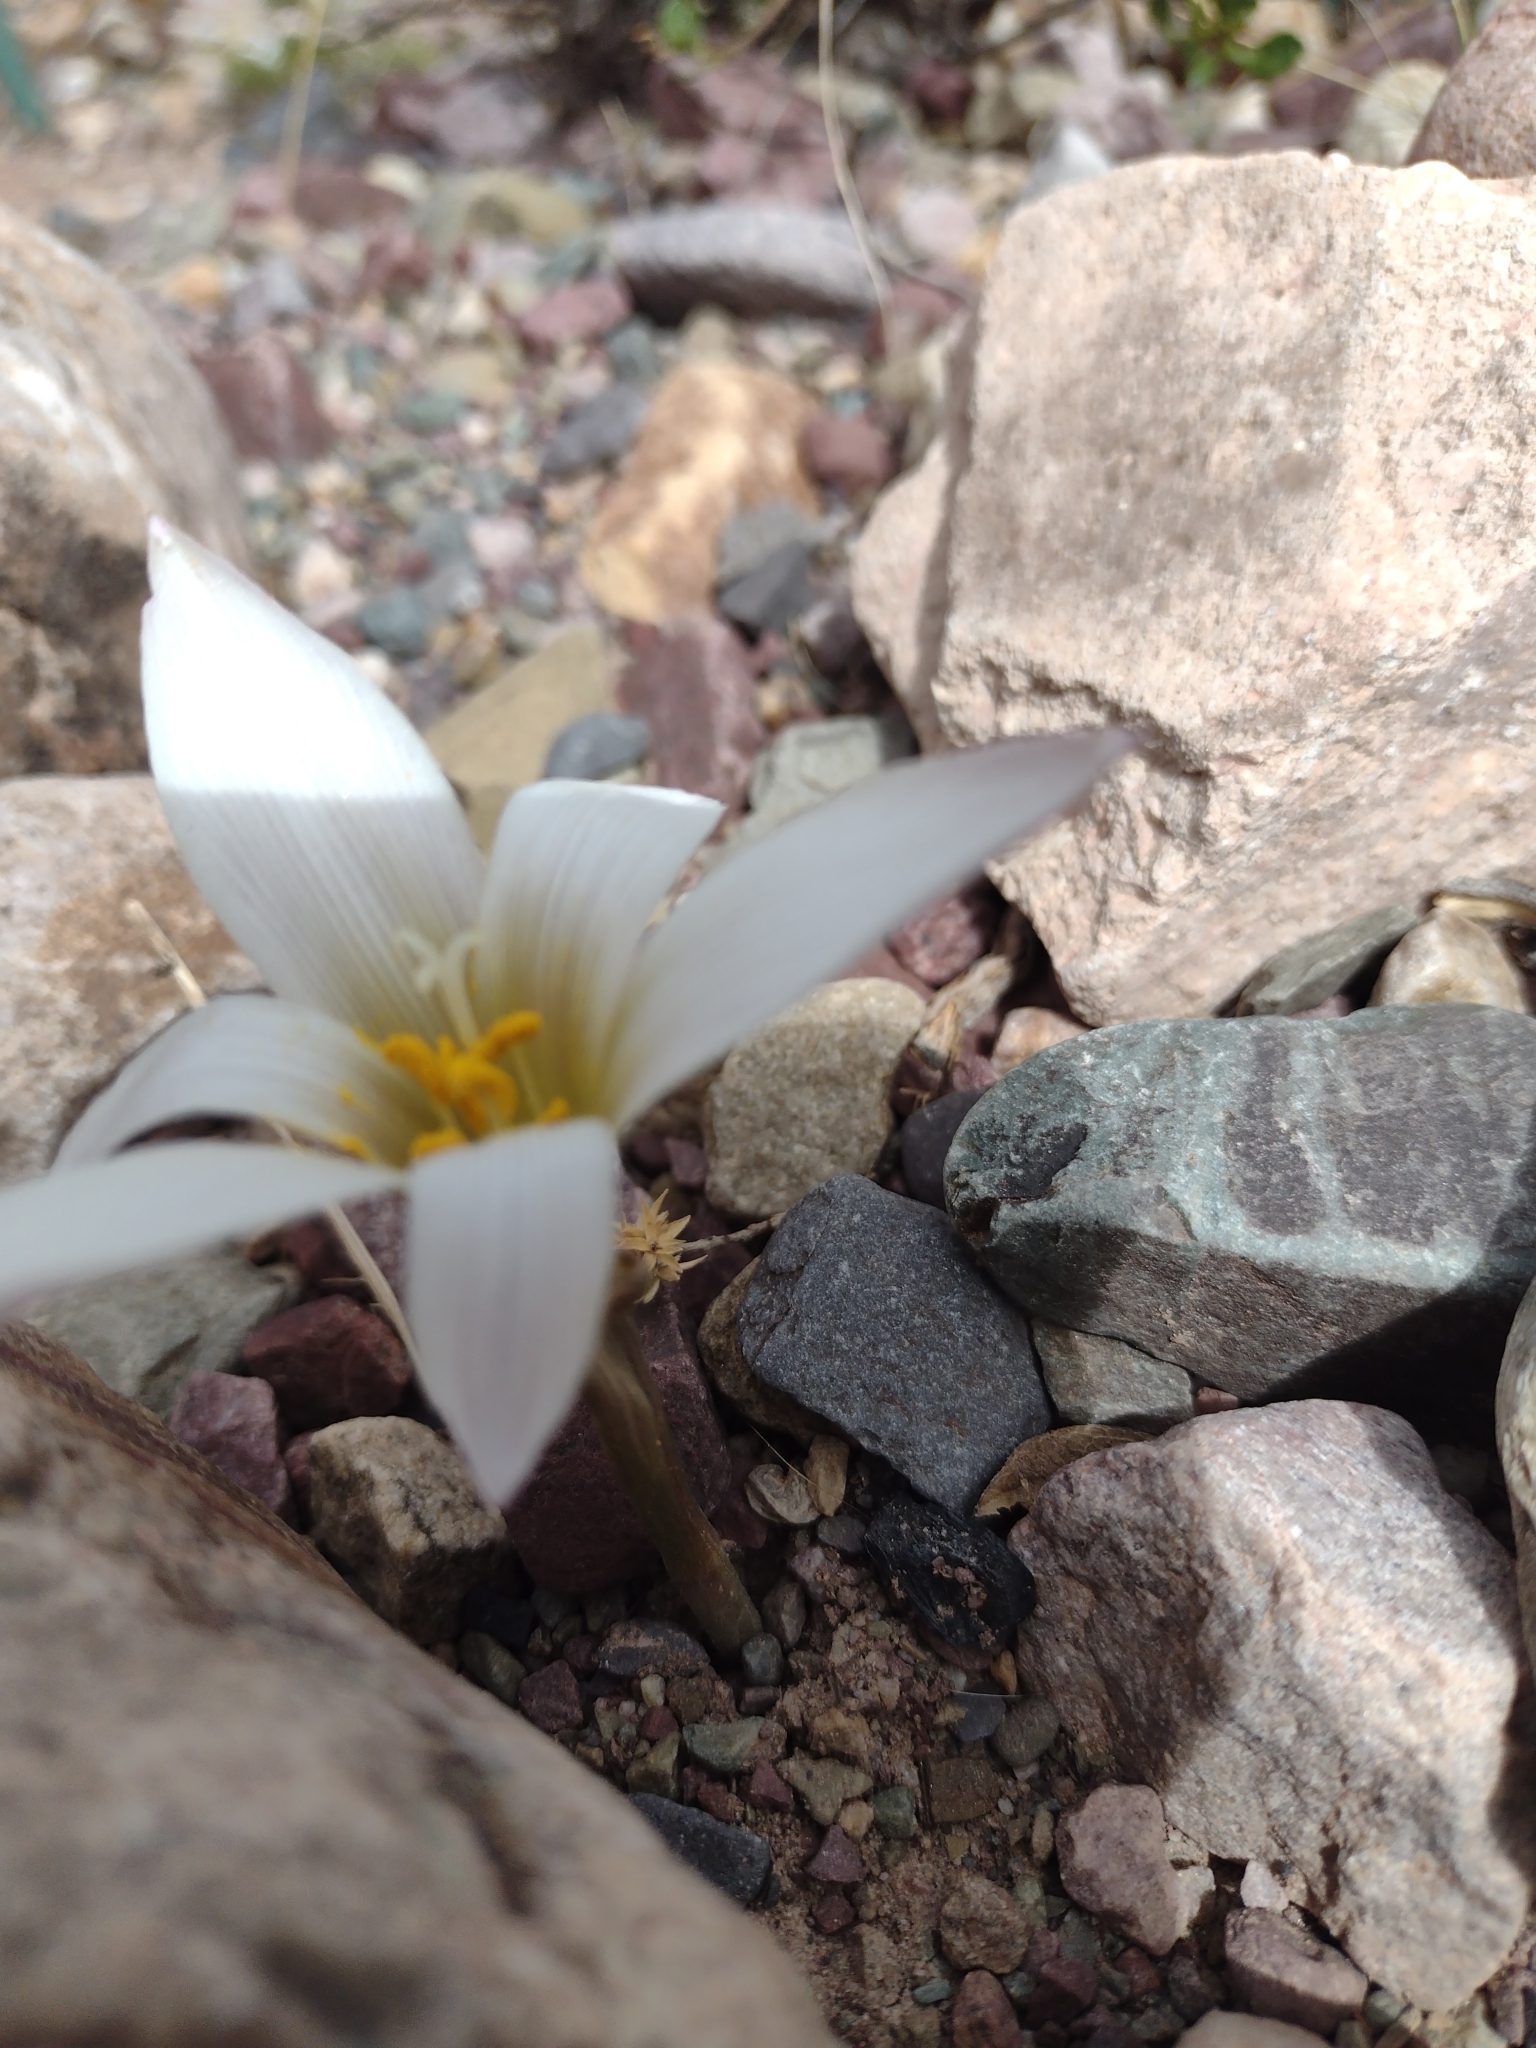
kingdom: Plantae
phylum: Tracheophyta
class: Liliopsida
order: Asparagales
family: Amaryllidaceae
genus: Zephyranthes
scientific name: Zephyranthes jamesonii
